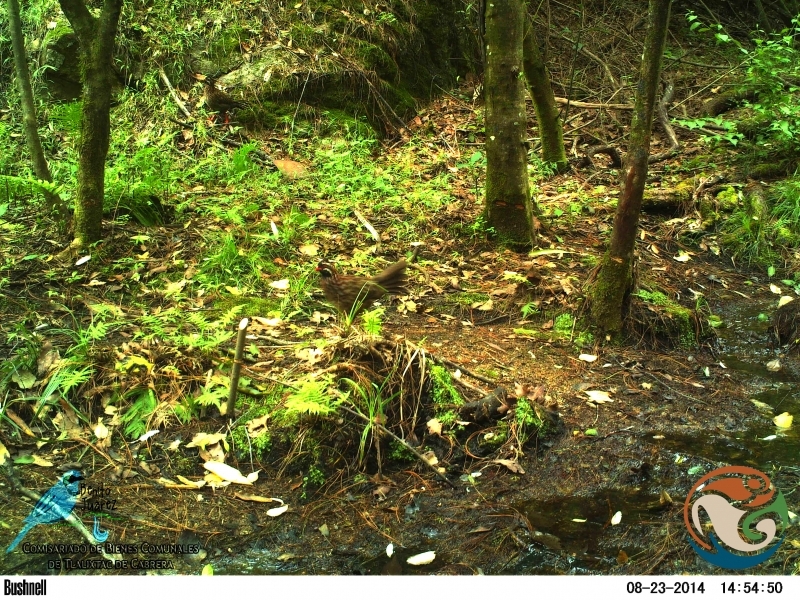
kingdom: Animalia
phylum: Chordata
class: Aves
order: Galliformes
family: Odontophoridae
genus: Dendrortyx
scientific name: Dendrortyx macroura
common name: Long-tailed wood-partridge
